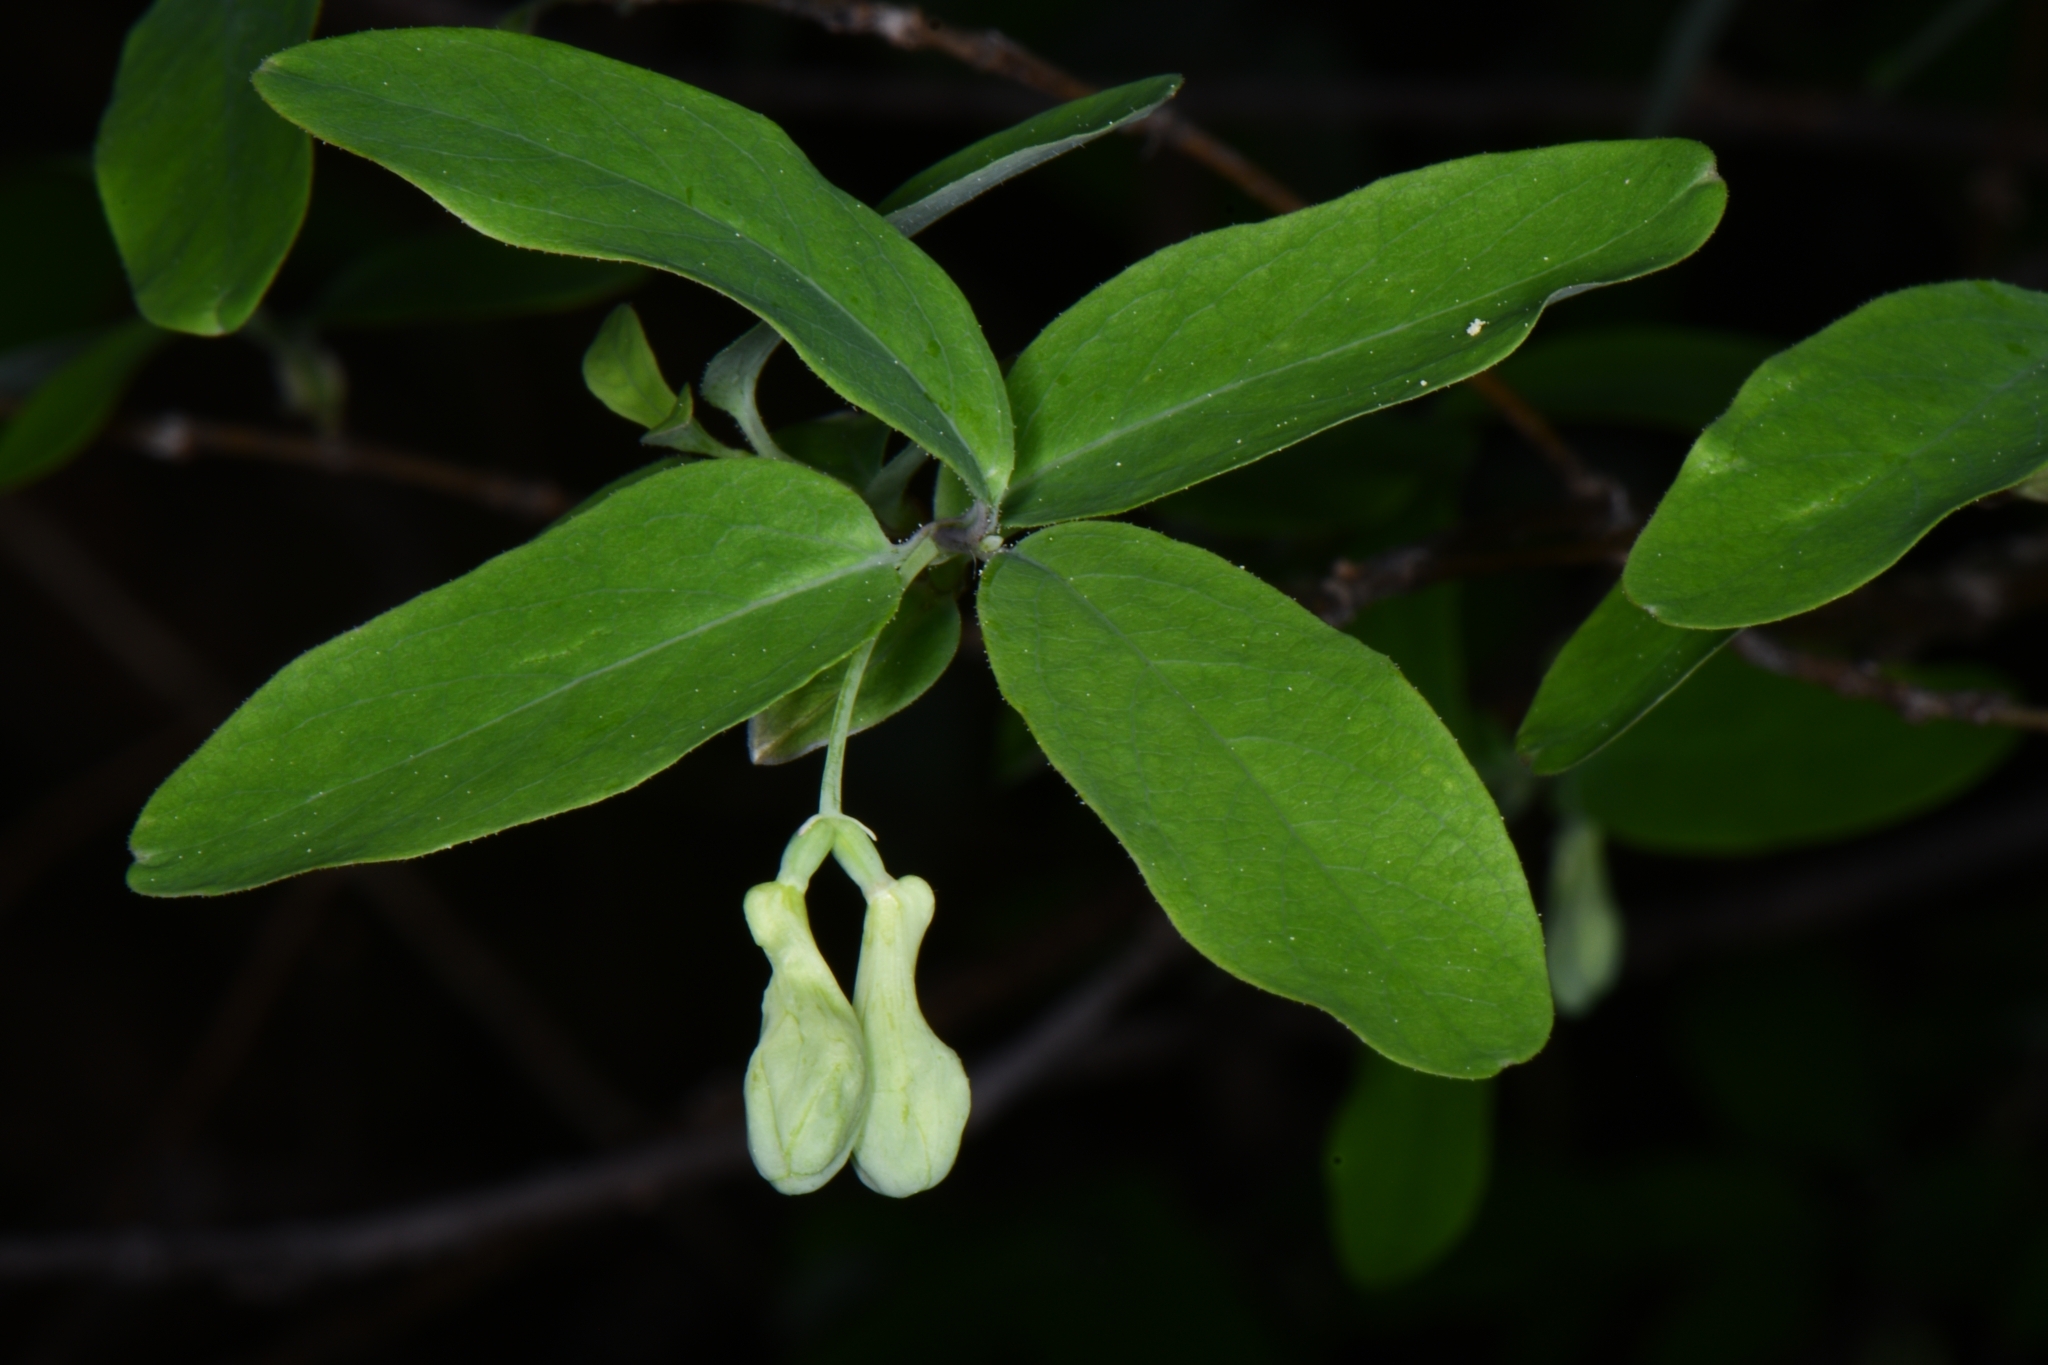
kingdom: Plantae
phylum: Tracheophyta
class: Magnoliopsida
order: Dipsacales
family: Caprifoliaceae
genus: Lonicera
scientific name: Lonicera utahensis
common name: Utah honeysuckle
